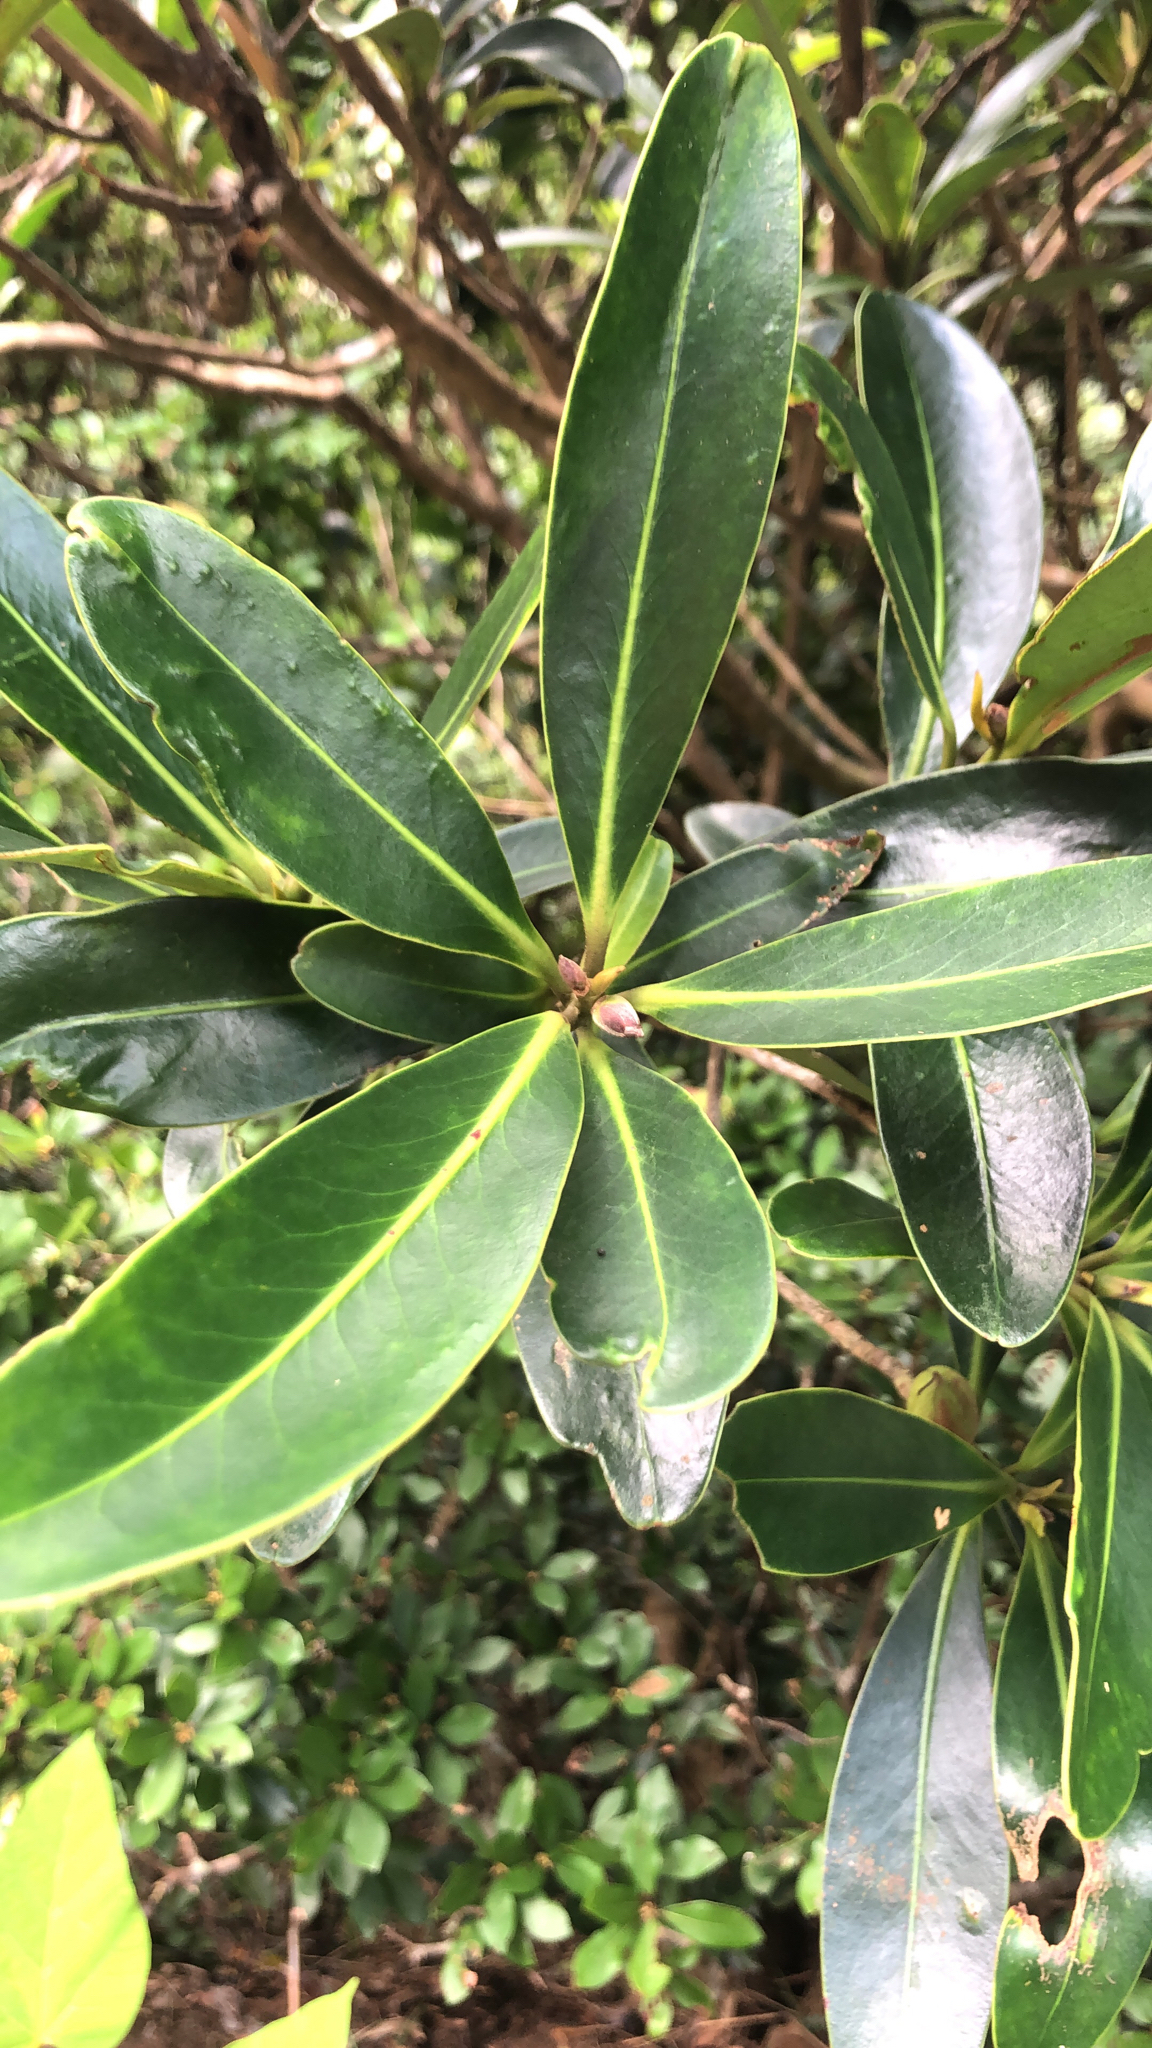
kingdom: Plantae
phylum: Tracheophyta
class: Magnoliopsida
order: Ericales
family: Theaceae
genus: Polyspora
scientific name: Polyspora axillaris
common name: Fried egg tree
